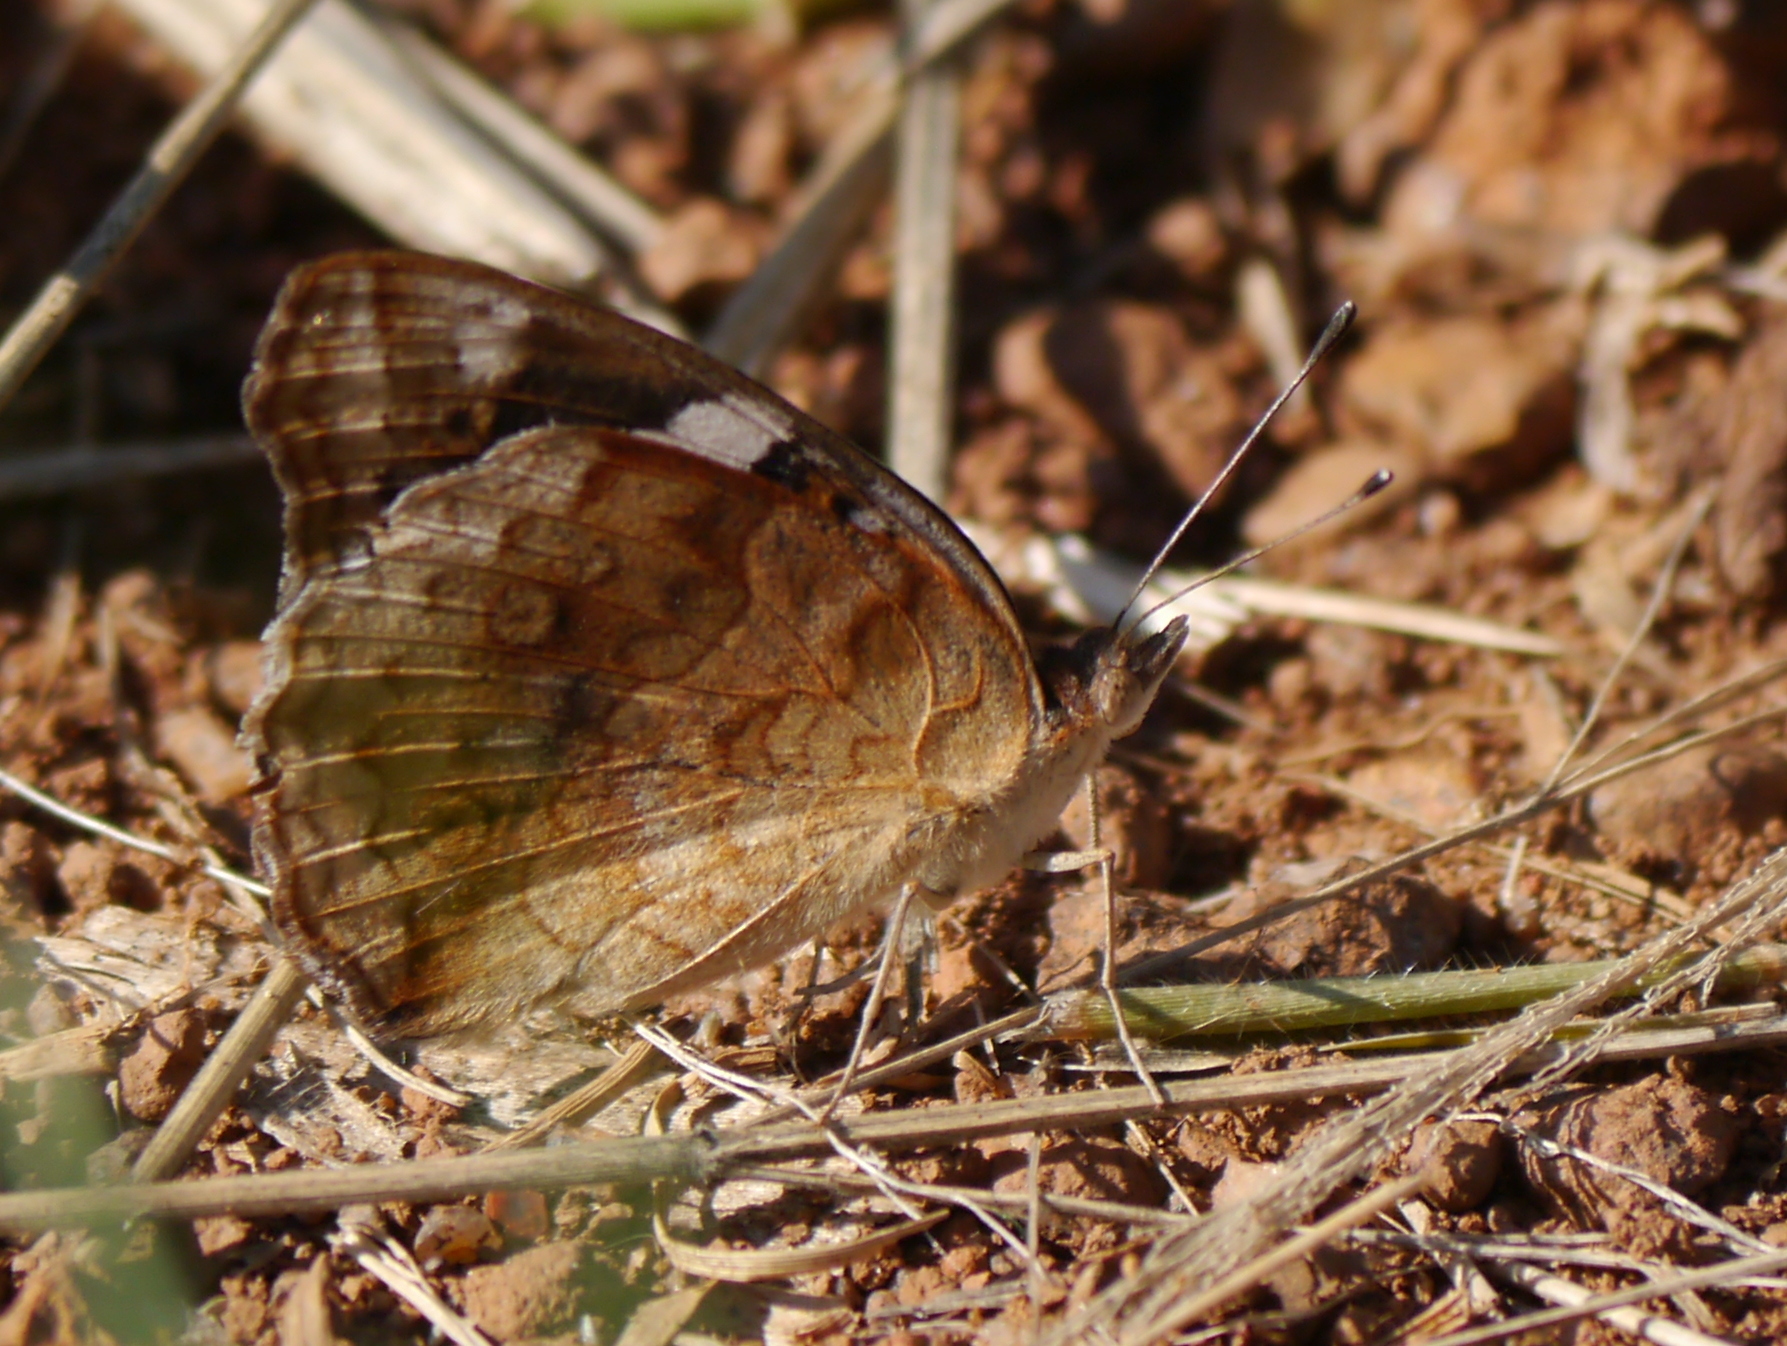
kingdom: Animalia
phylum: Arthropoda
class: Insecta
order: Lepidoptera
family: Nymphalidae
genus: Junonia
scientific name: Junonia oenone
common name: Dark blue pansy
